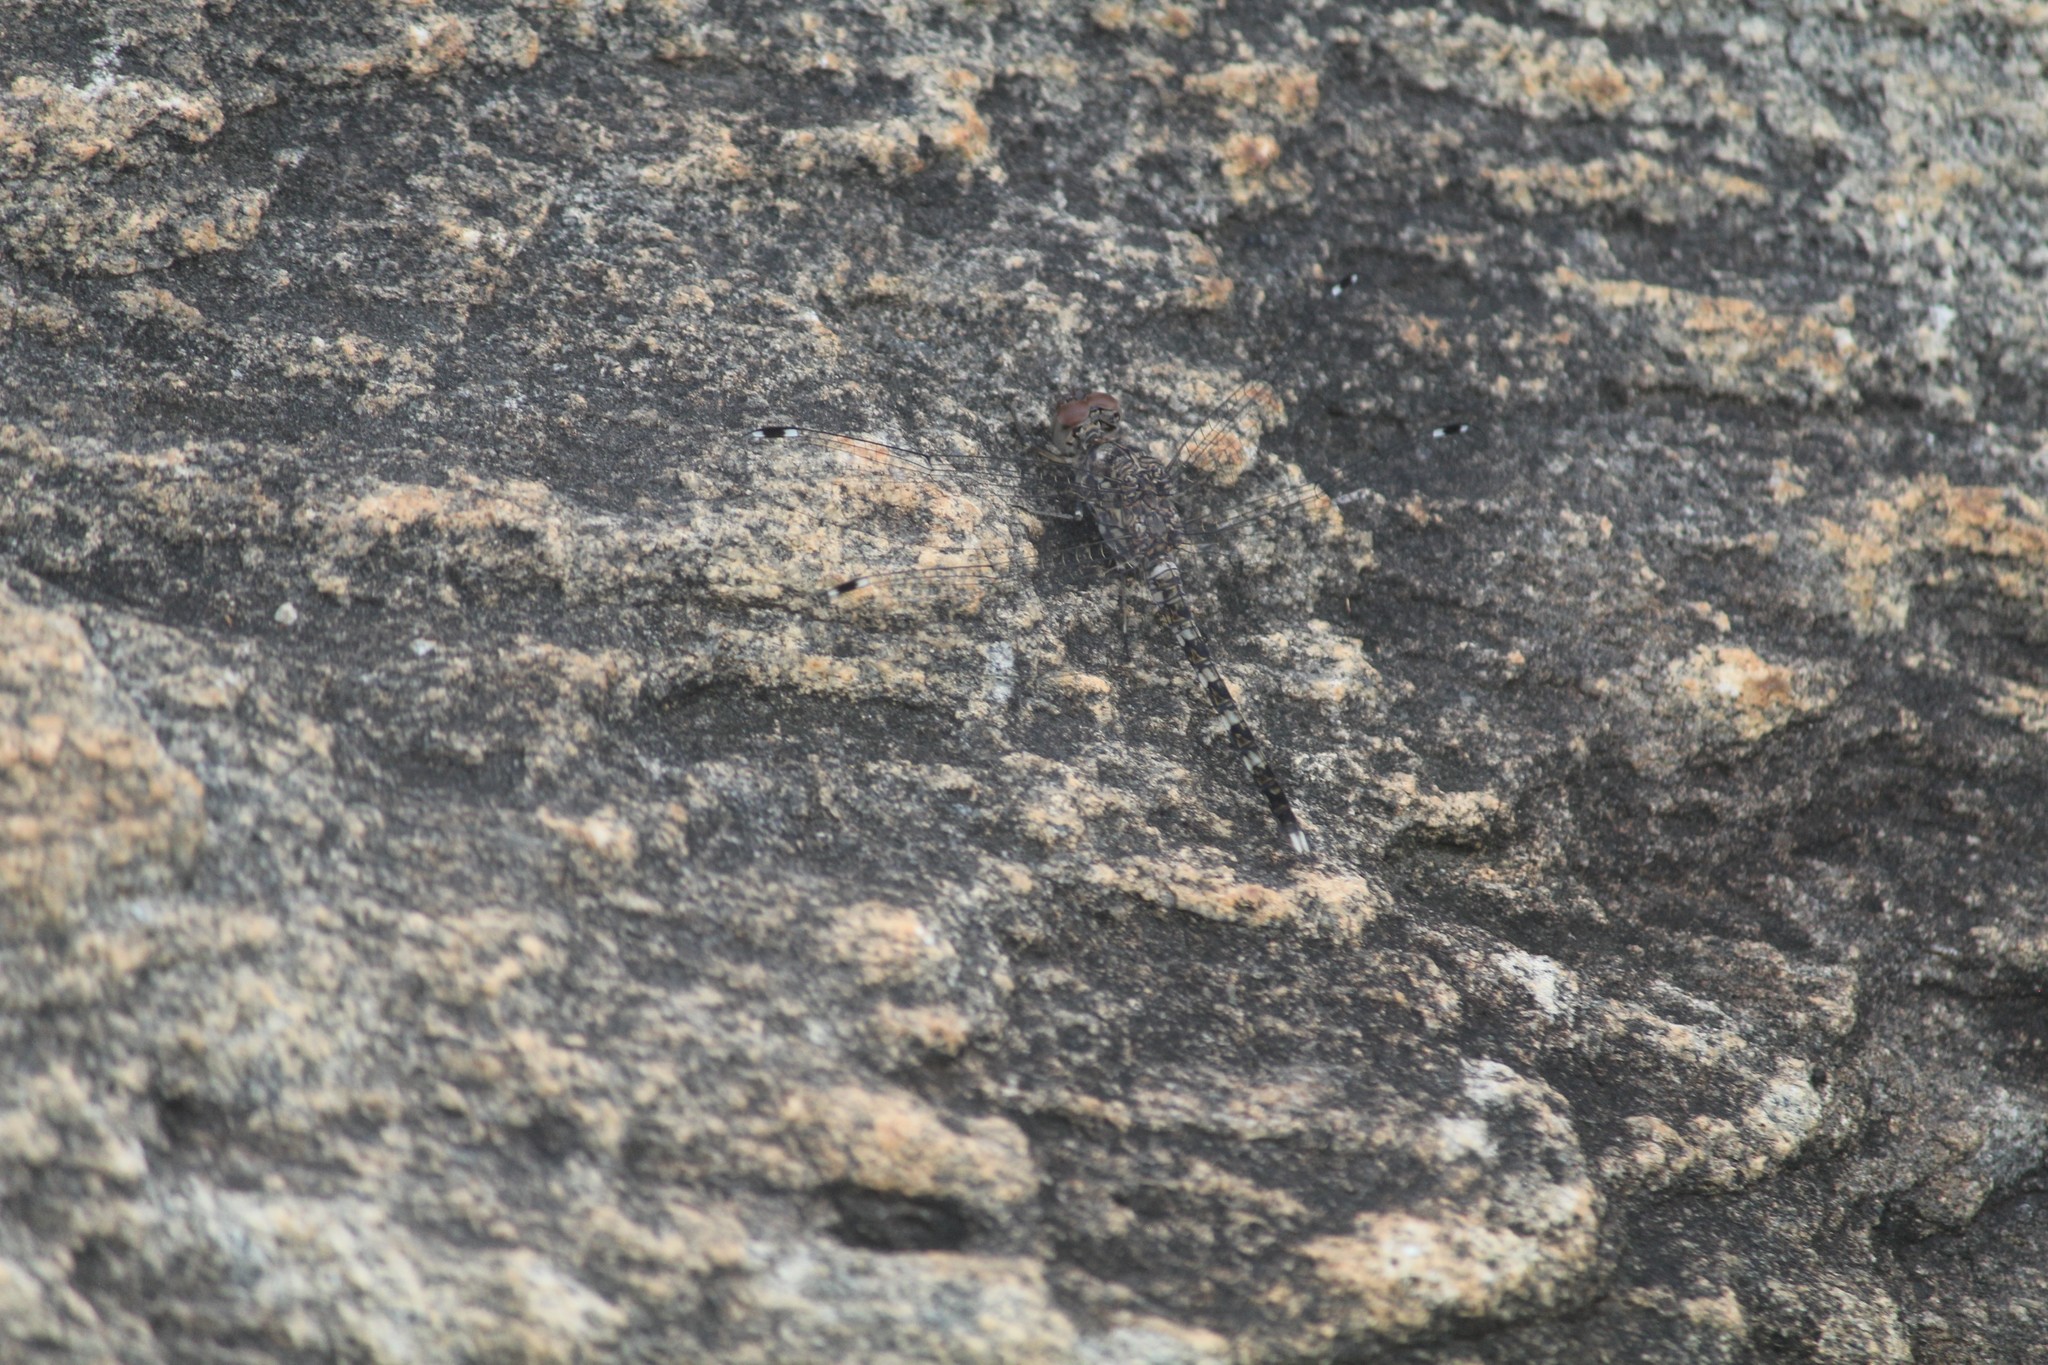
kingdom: Animalia
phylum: Arthropoda
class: Insecta
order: Odonata
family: Libellulidae
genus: Bradinopyga
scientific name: Bradinopyga geminata
